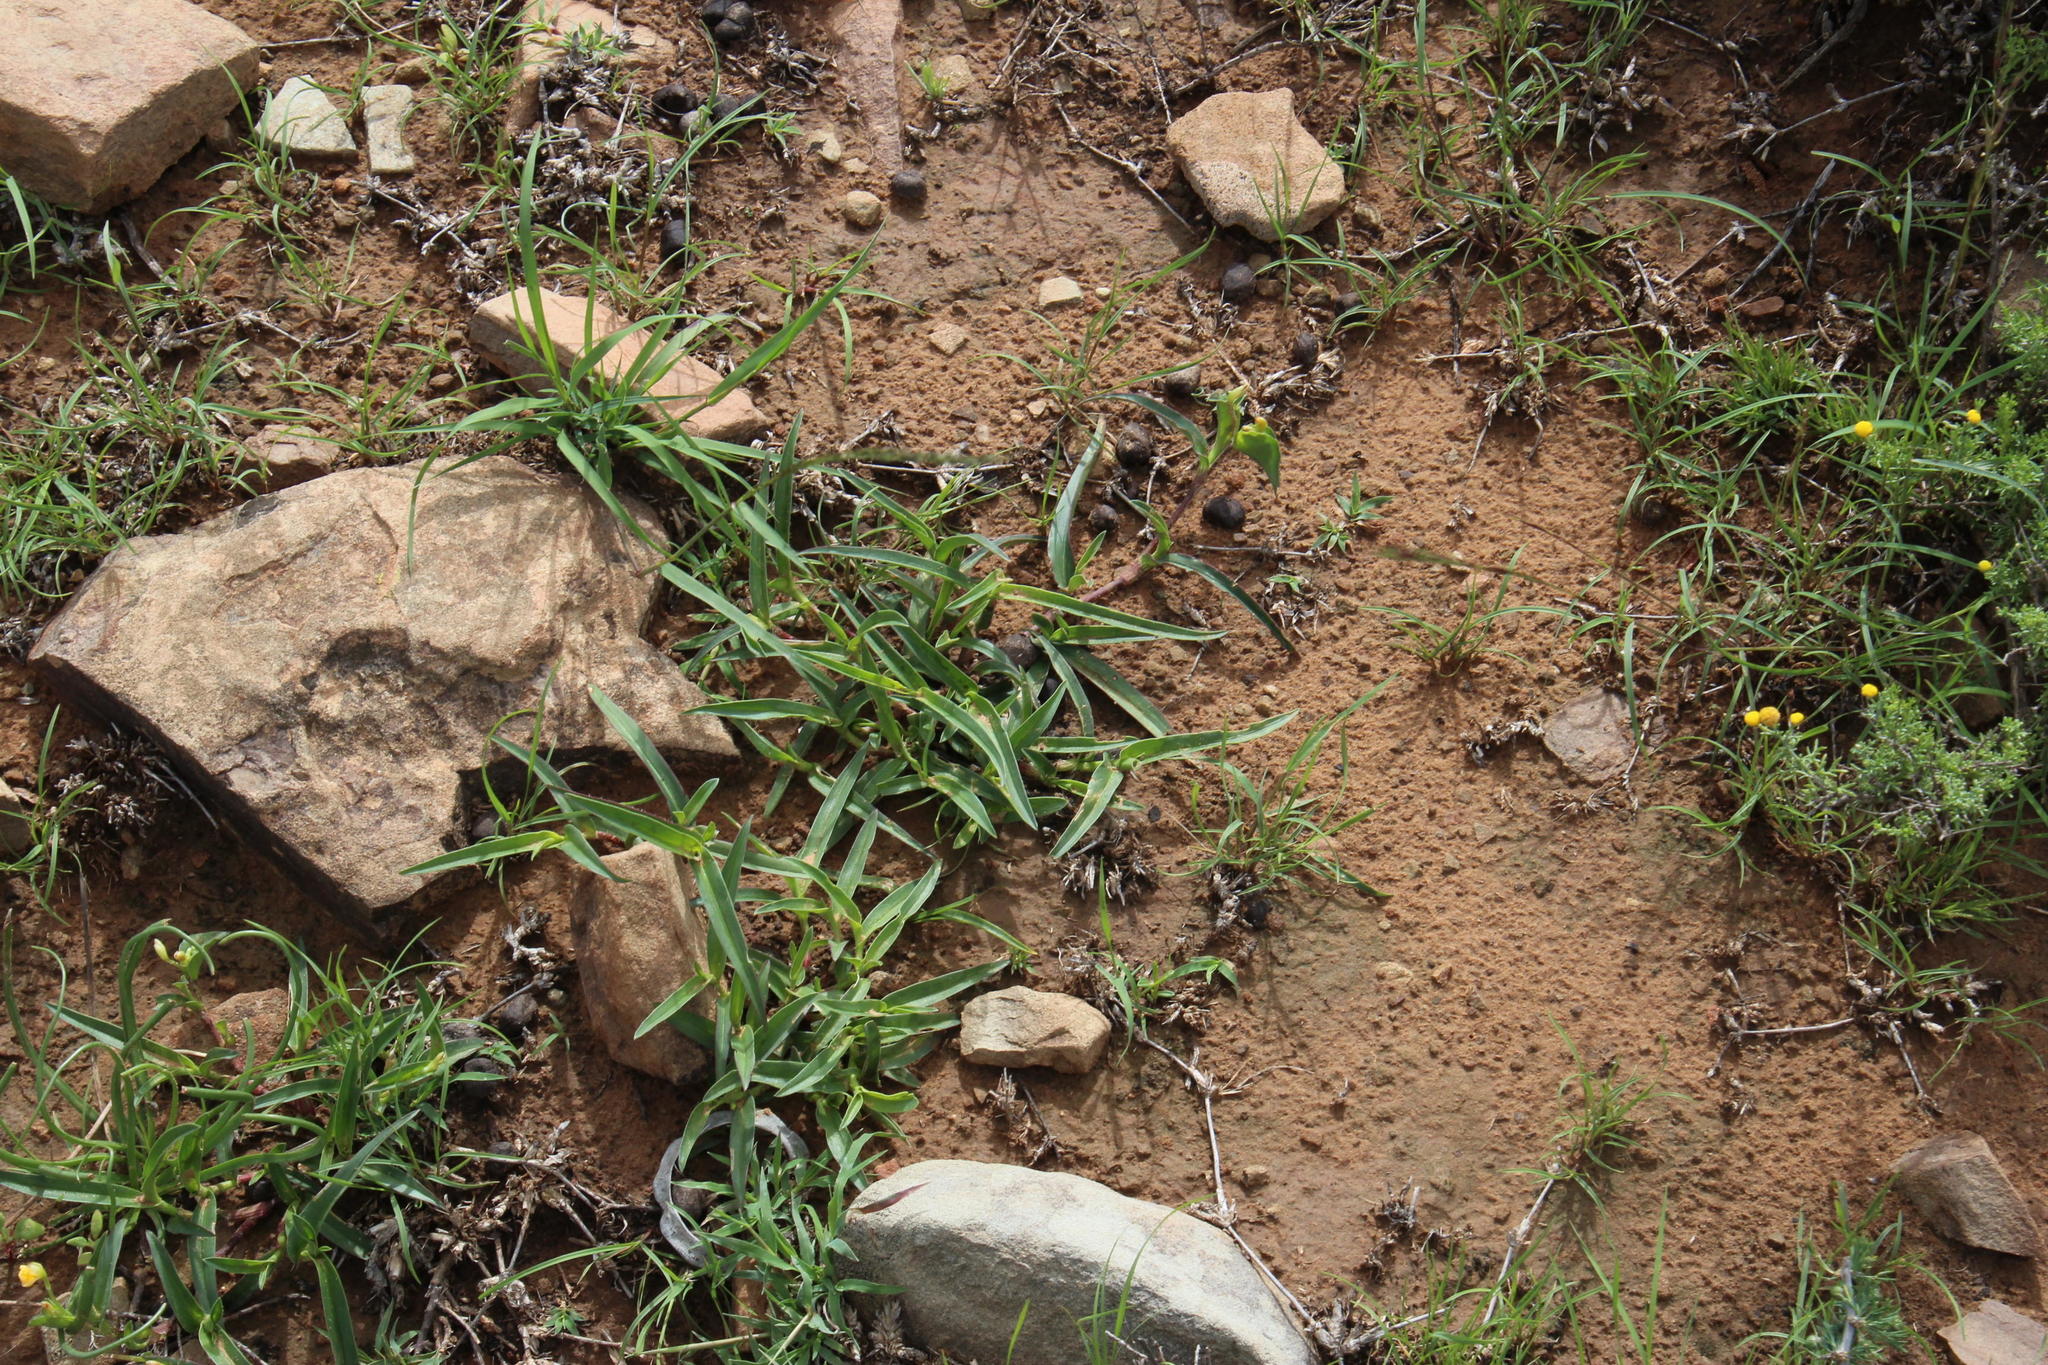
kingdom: Plantae
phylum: Tracheophyta
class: Liliopsida
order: Commelinales
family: Commelinaceae
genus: Commelina
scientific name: Commelina africana
